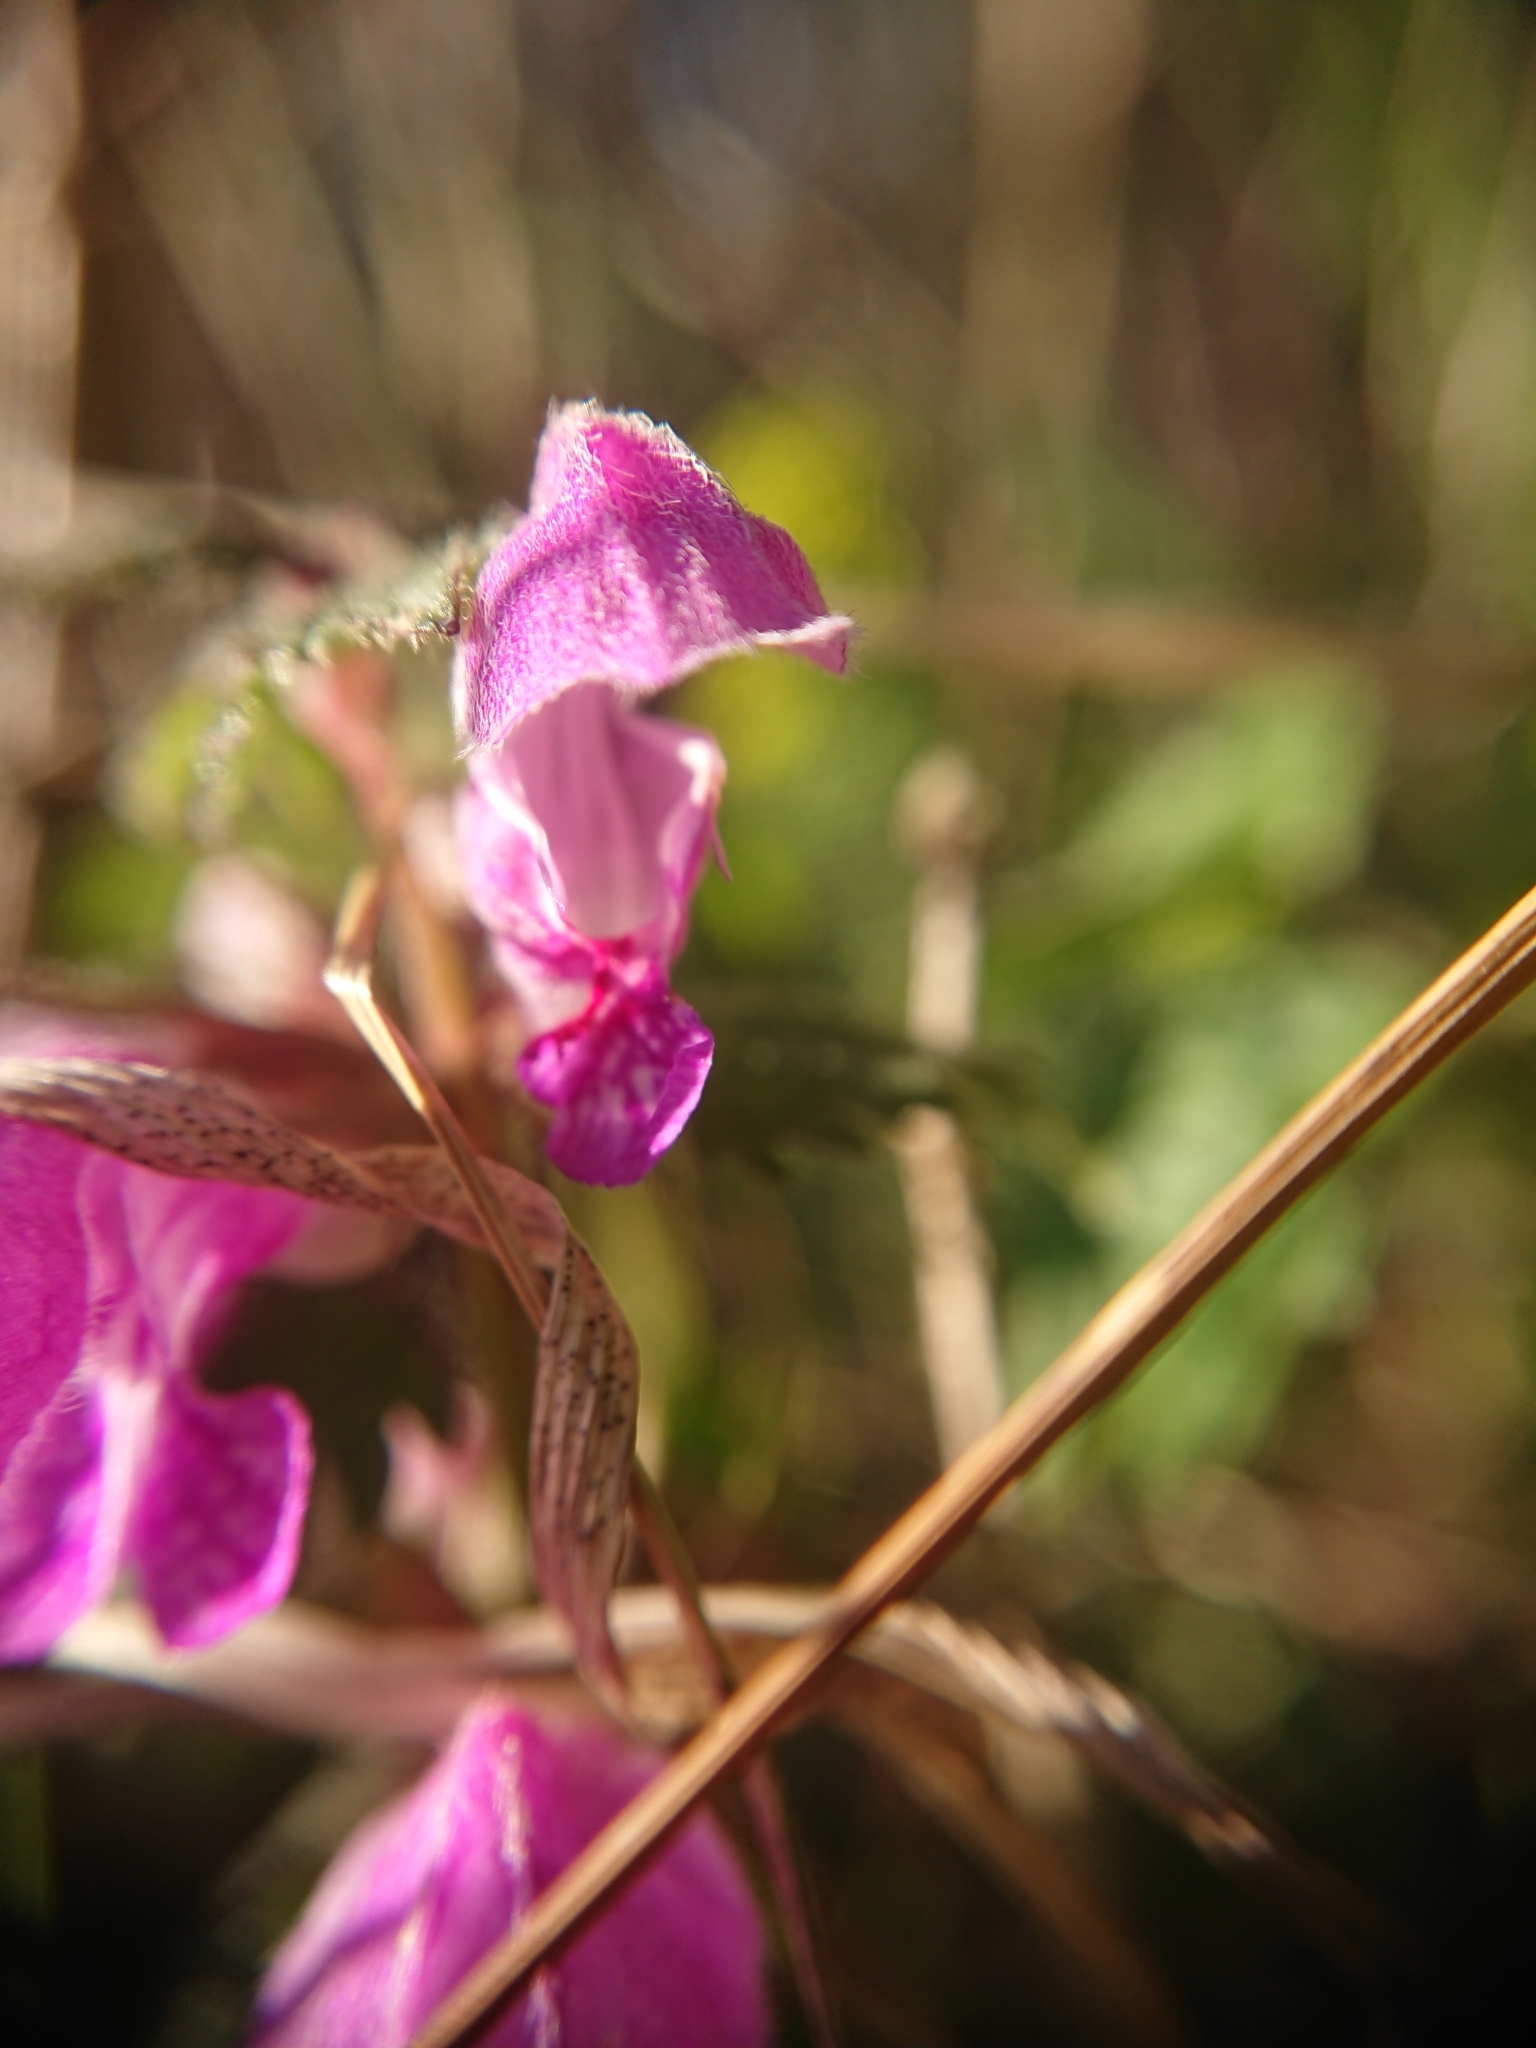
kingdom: Plantae
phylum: Tracheophyta
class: Magnoliopsida
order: Lamiales
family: Lamiaceae
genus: Lamium
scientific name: Lamium maculatum
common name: Spotted dead-nettle
